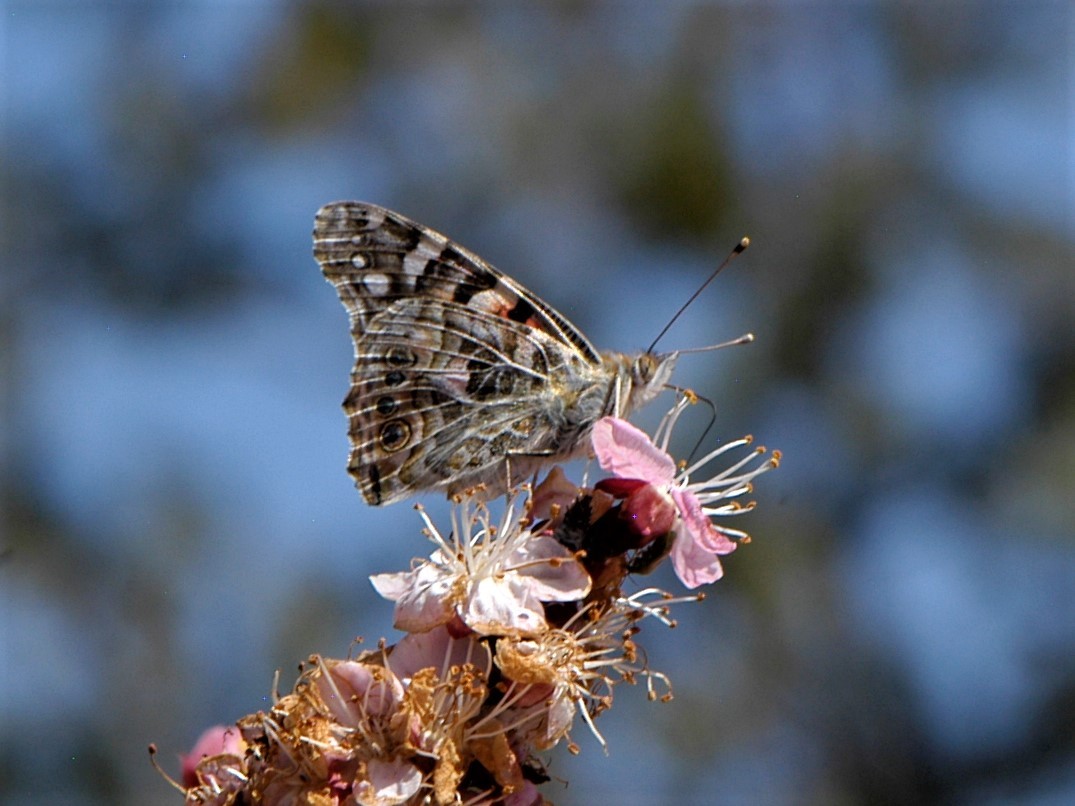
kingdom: Animalia
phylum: Arthropoda
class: Insecta
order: Lepidoptera
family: Nymphalidae
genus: Vanessa
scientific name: Vanessa cardui
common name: Painted lady
